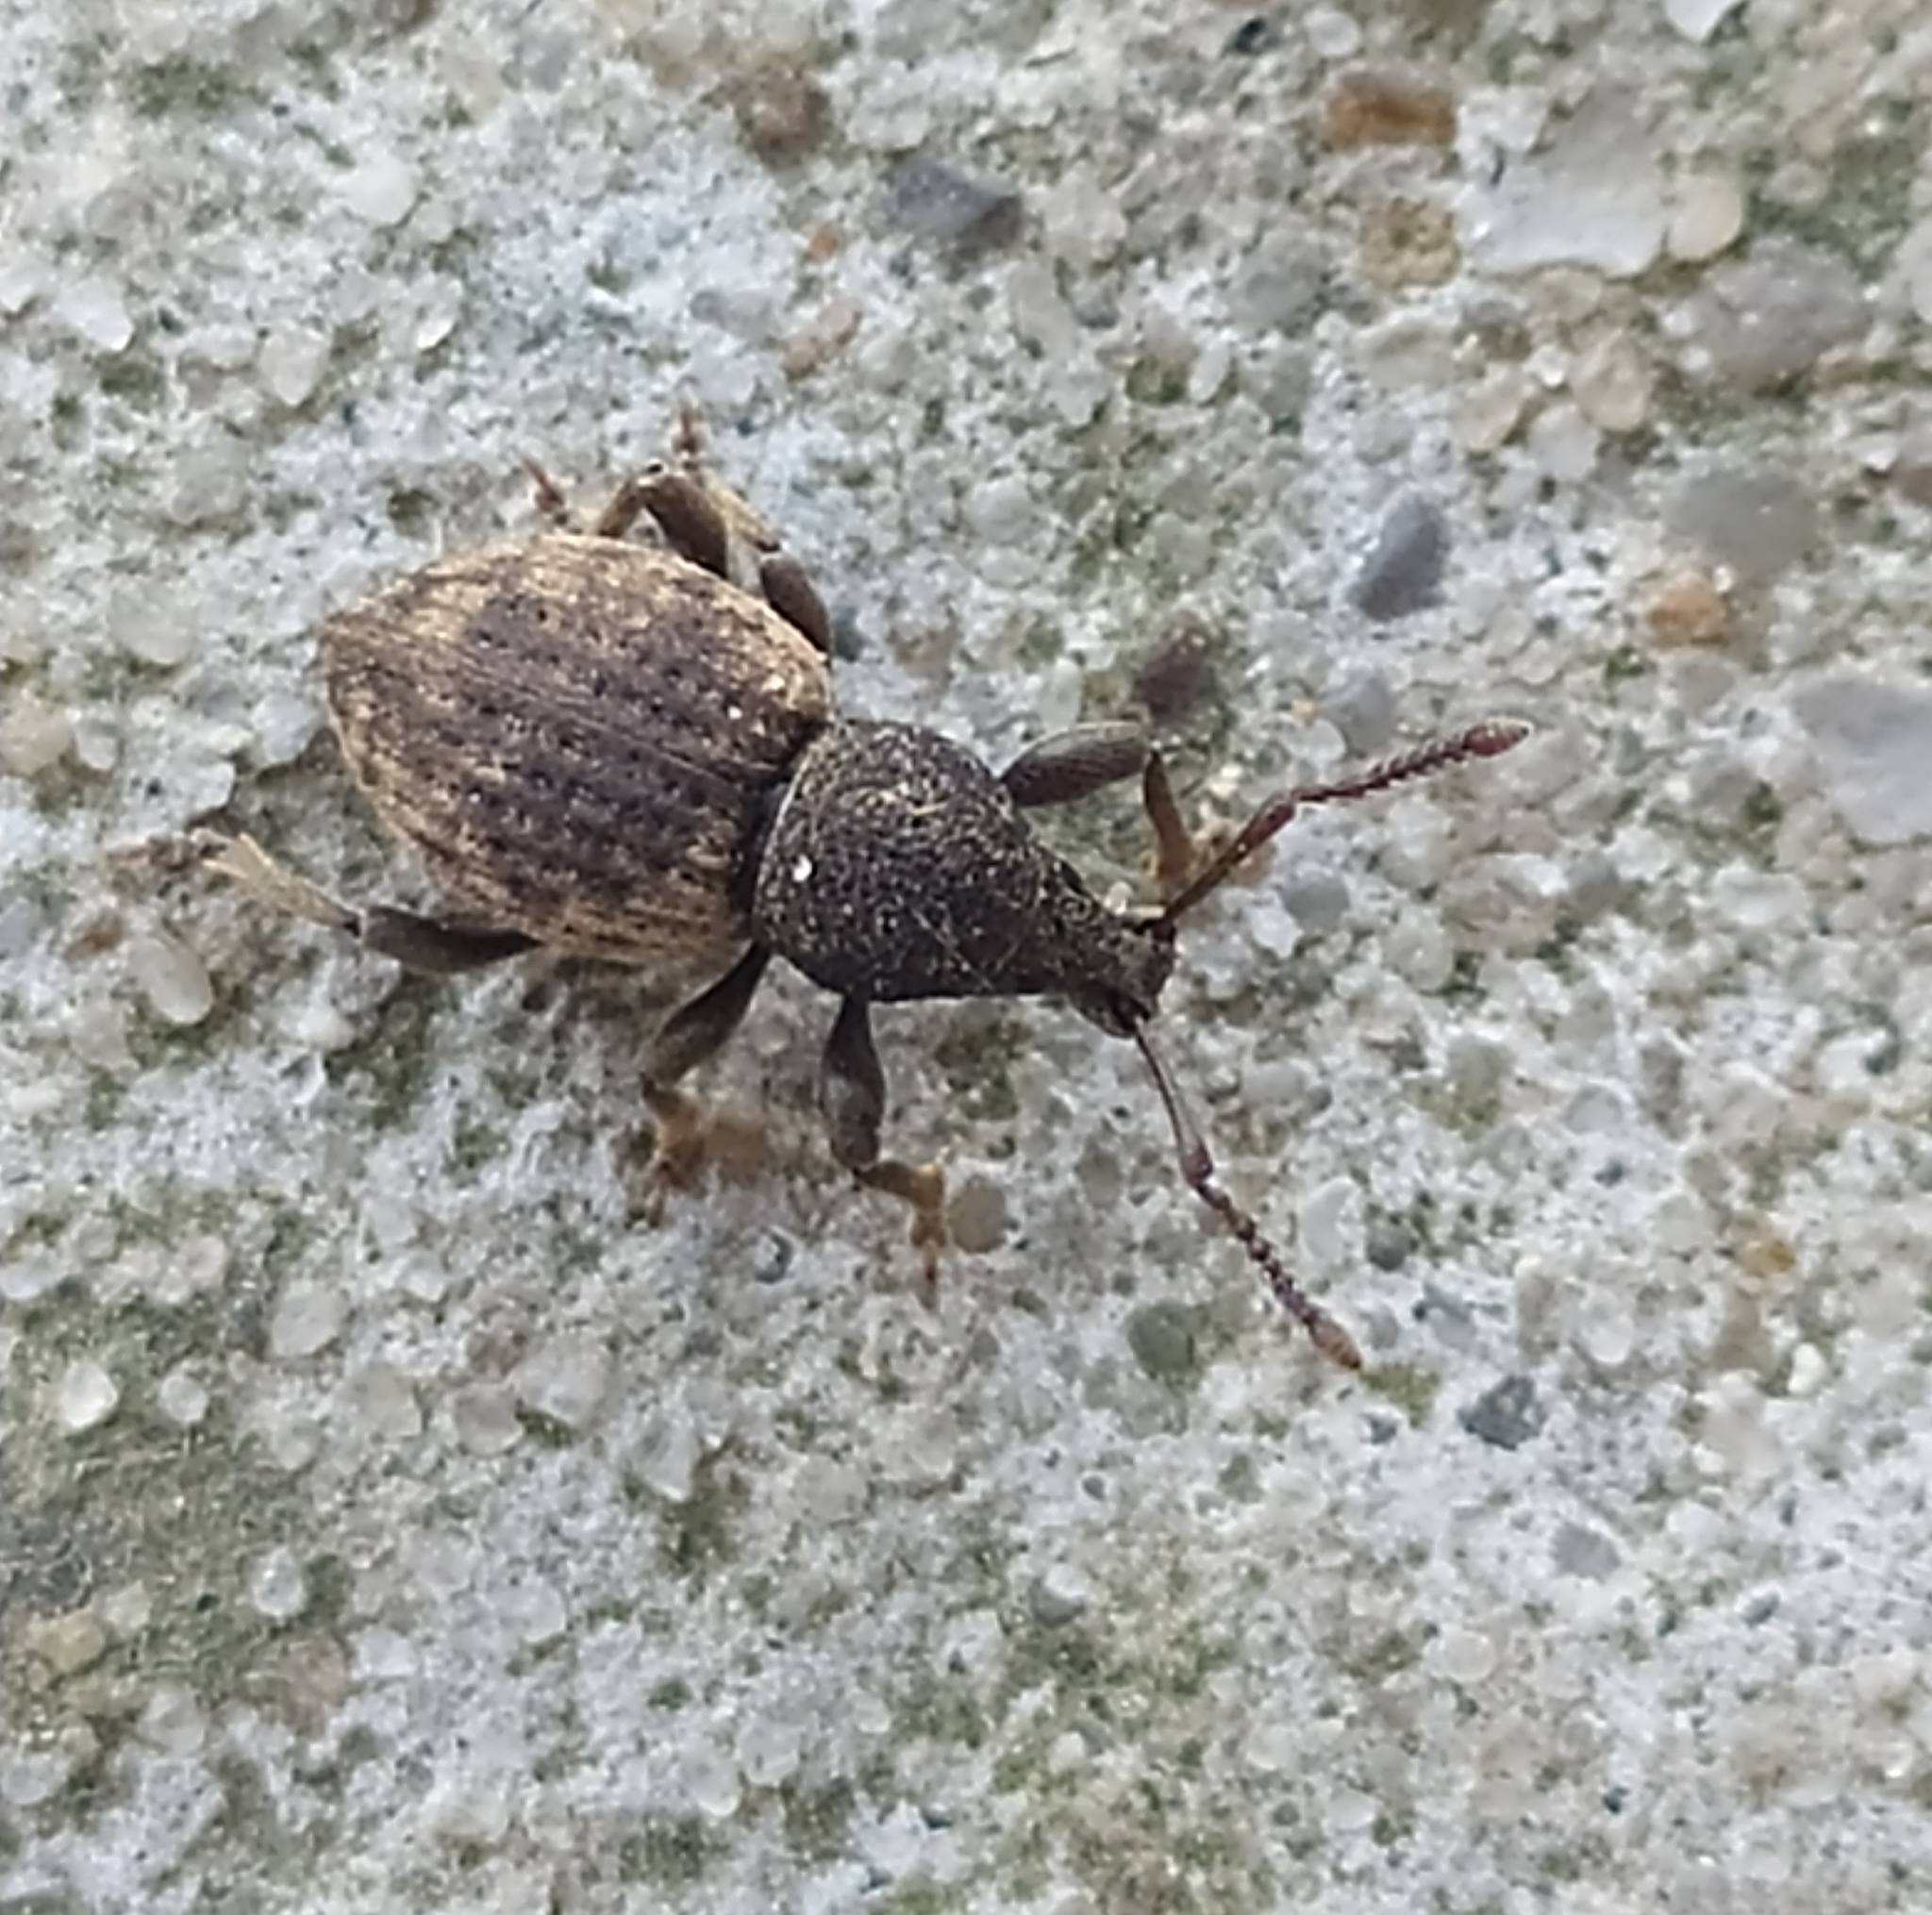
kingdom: Animalia
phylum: Arthropoda
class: Insecta
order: Coleoptera
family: Curculionidae
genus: Otiorhynchus
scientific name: Otiorhynchus raucus
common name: Weevil
